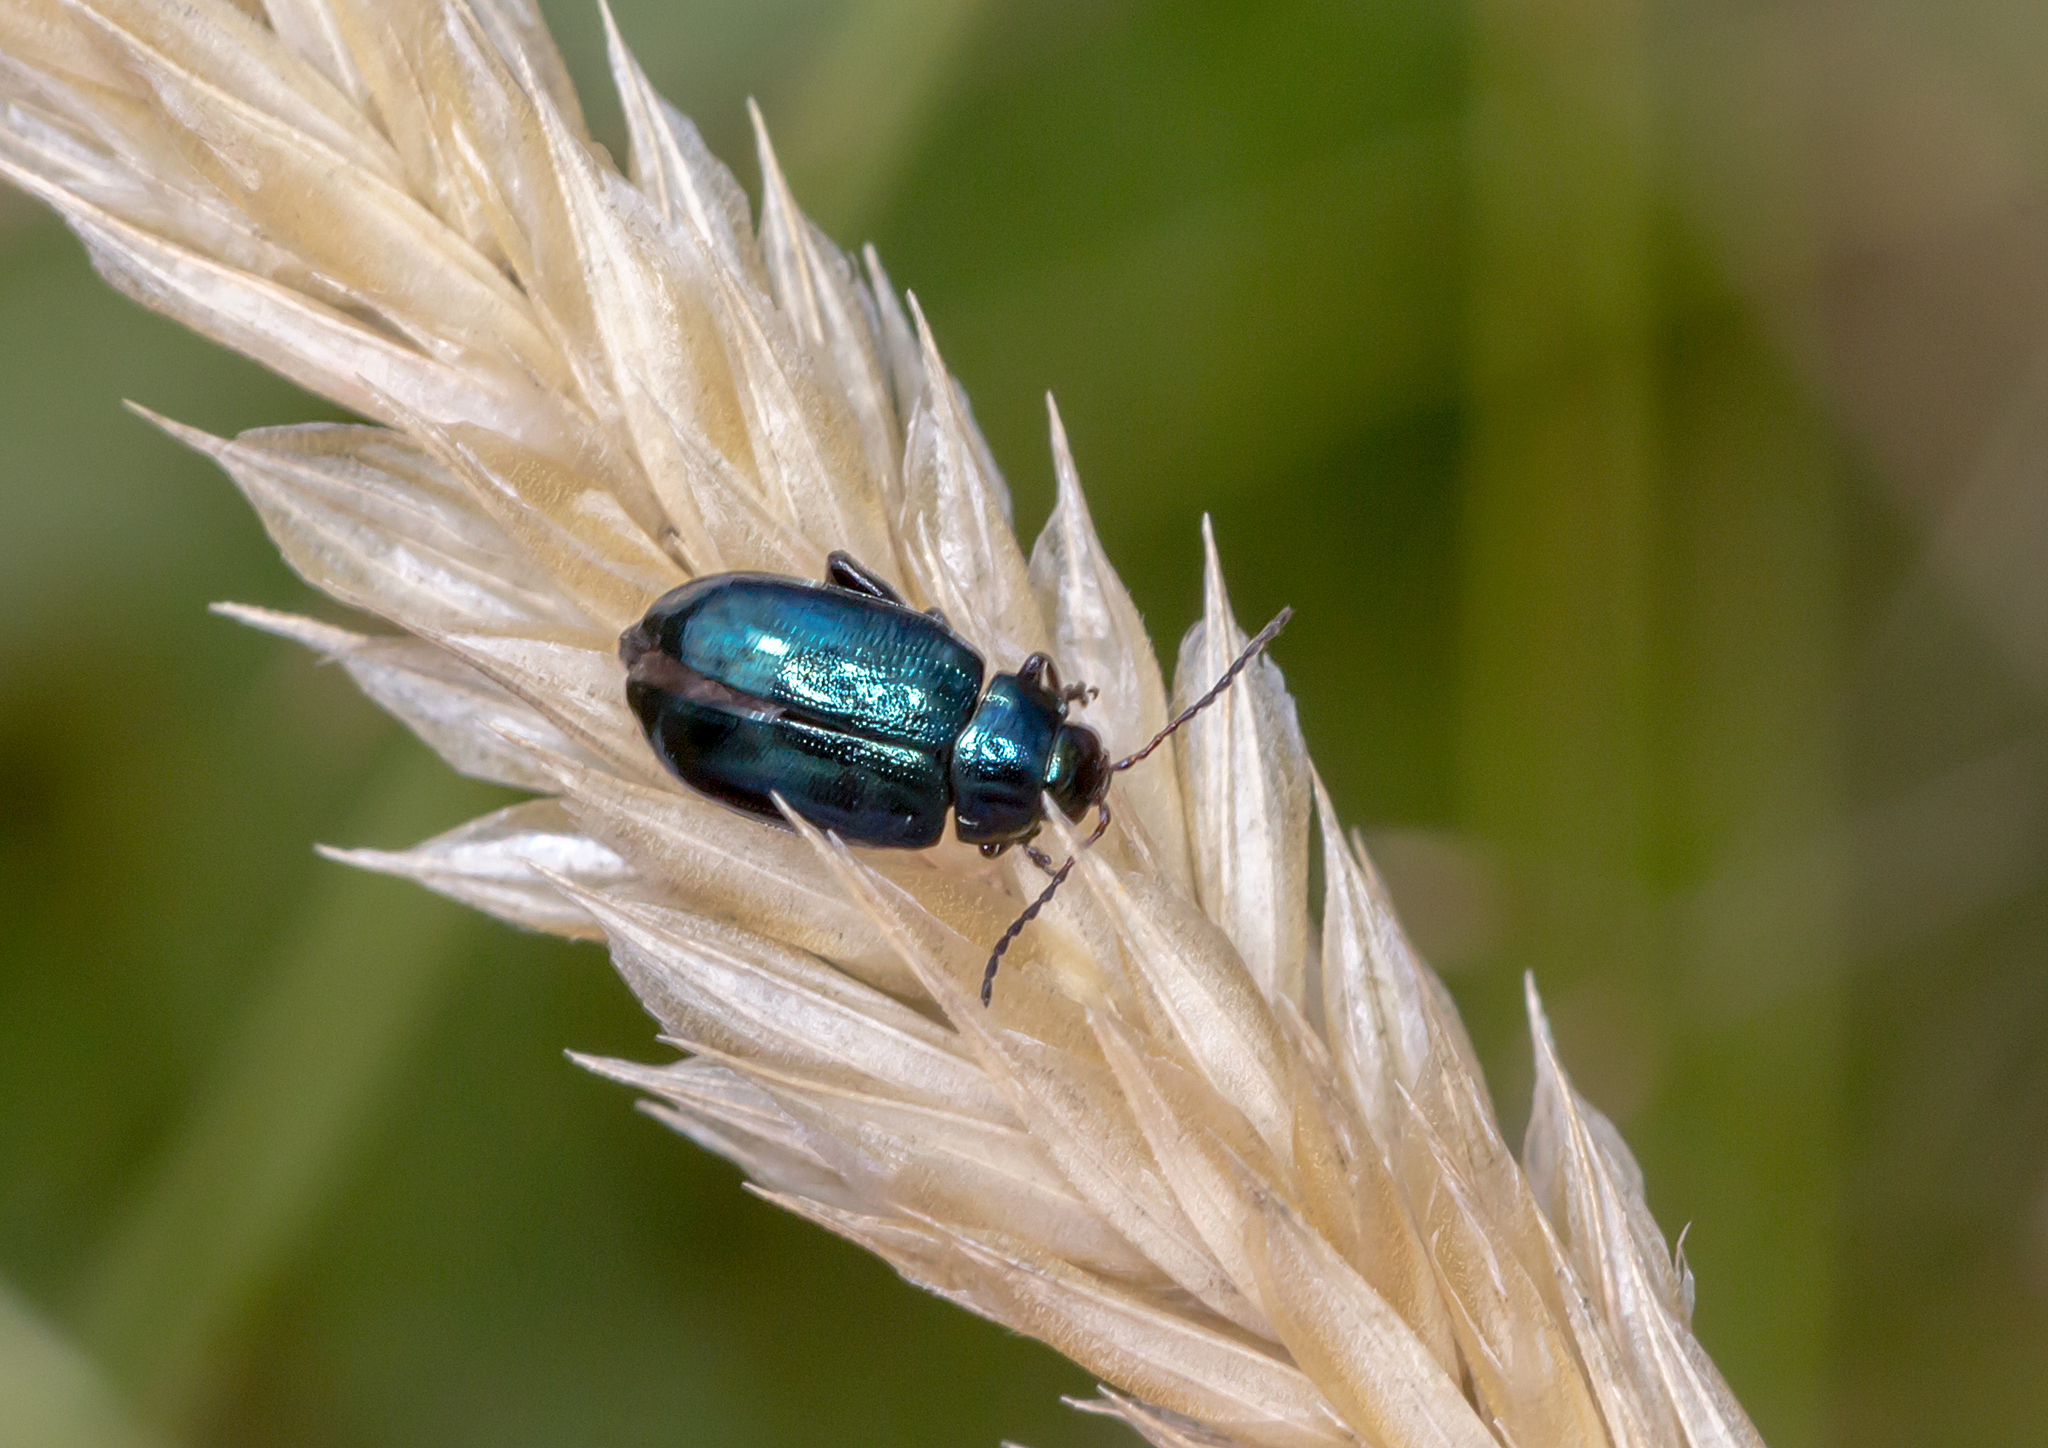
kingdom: Animalia
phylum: Arthropoda
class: Insecta
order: Coleoptera
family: Chrysomelidae
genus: Arsipoda
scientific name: Arsipoda
